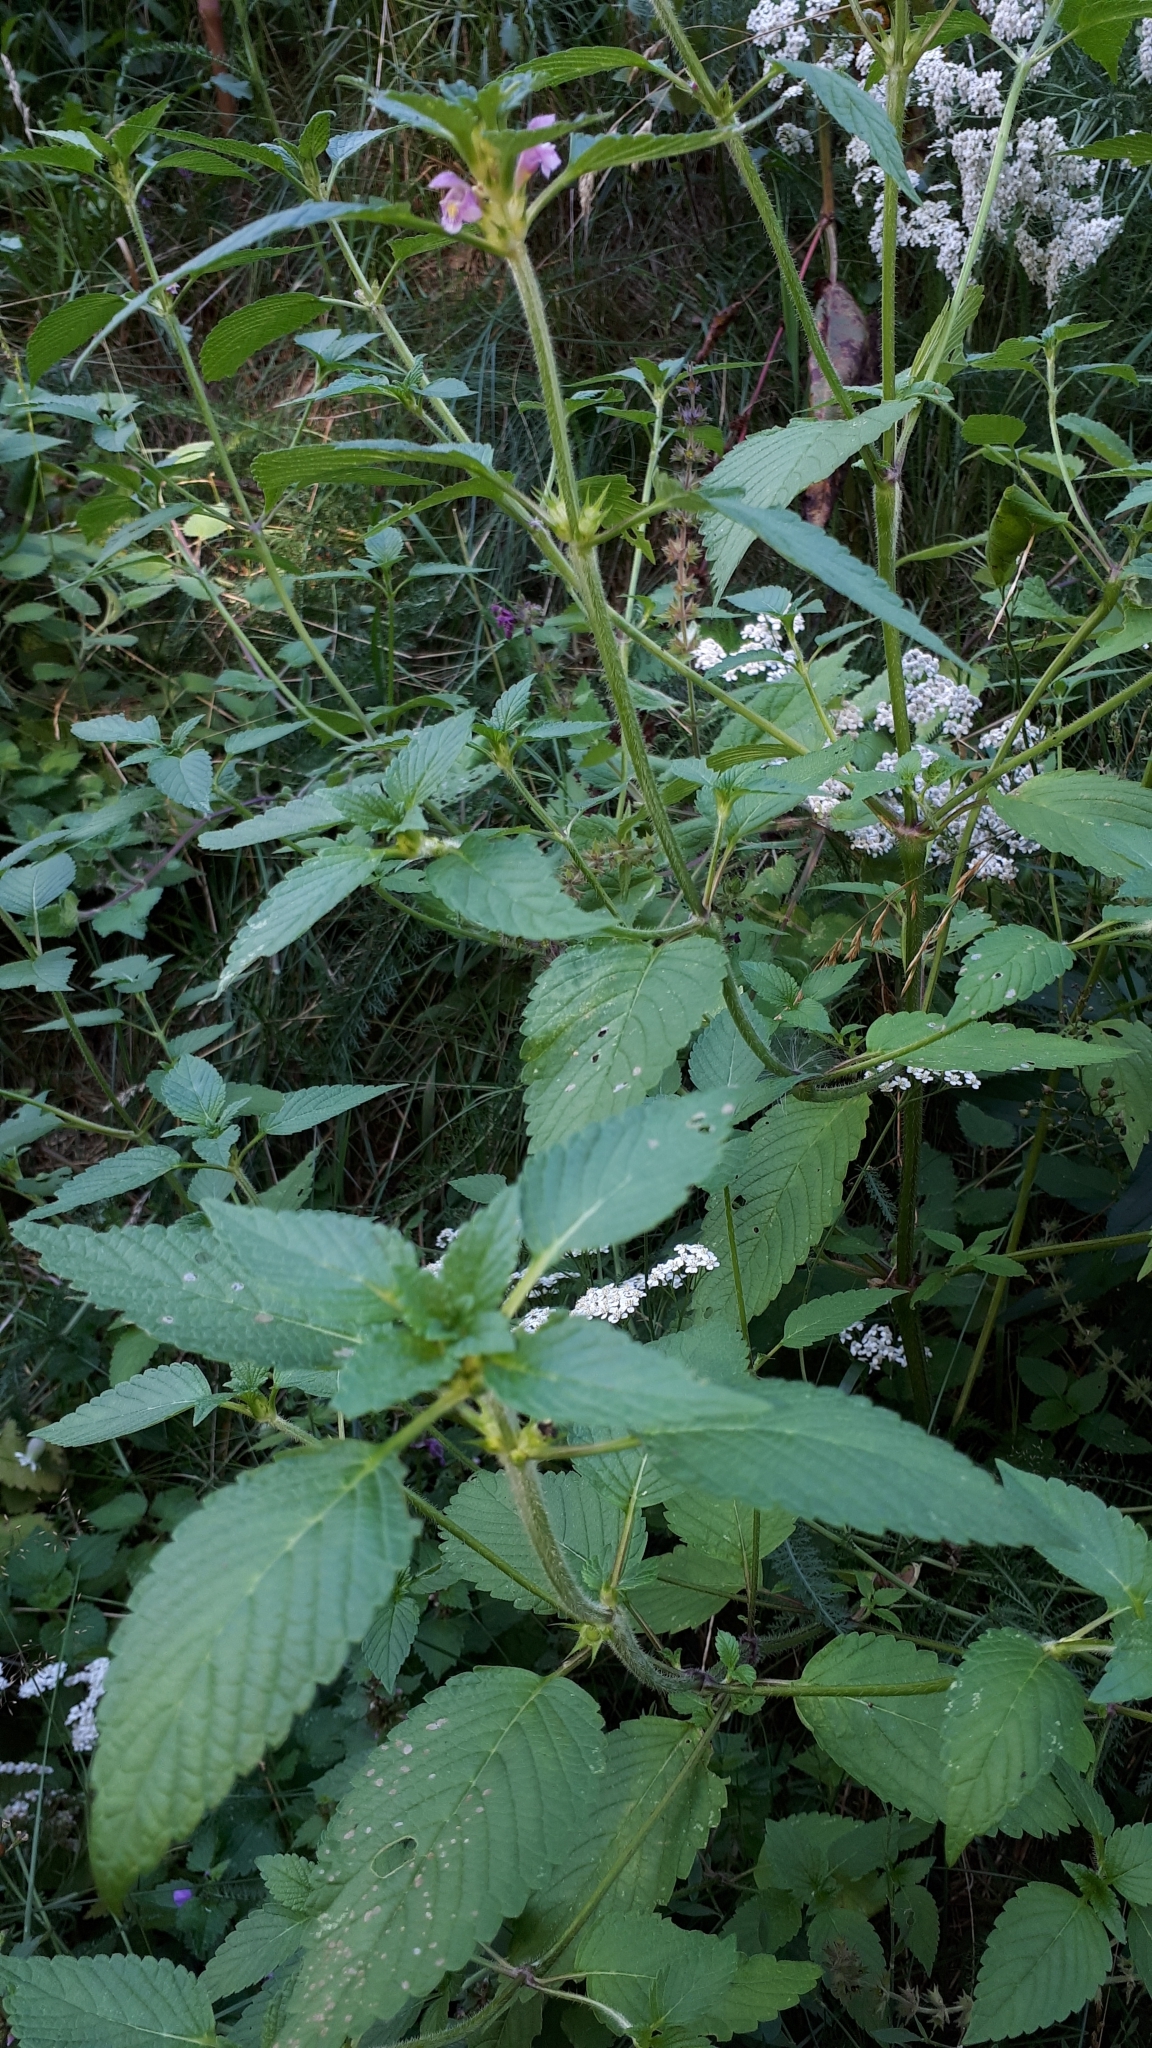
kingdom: Plantae
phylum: Tracheophyta
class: Magnoliopsida
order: Lamiales
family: Lamiaceae
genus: Galeopsis
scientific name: Galeopsis tetrahit
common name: Common hemp-nettle
